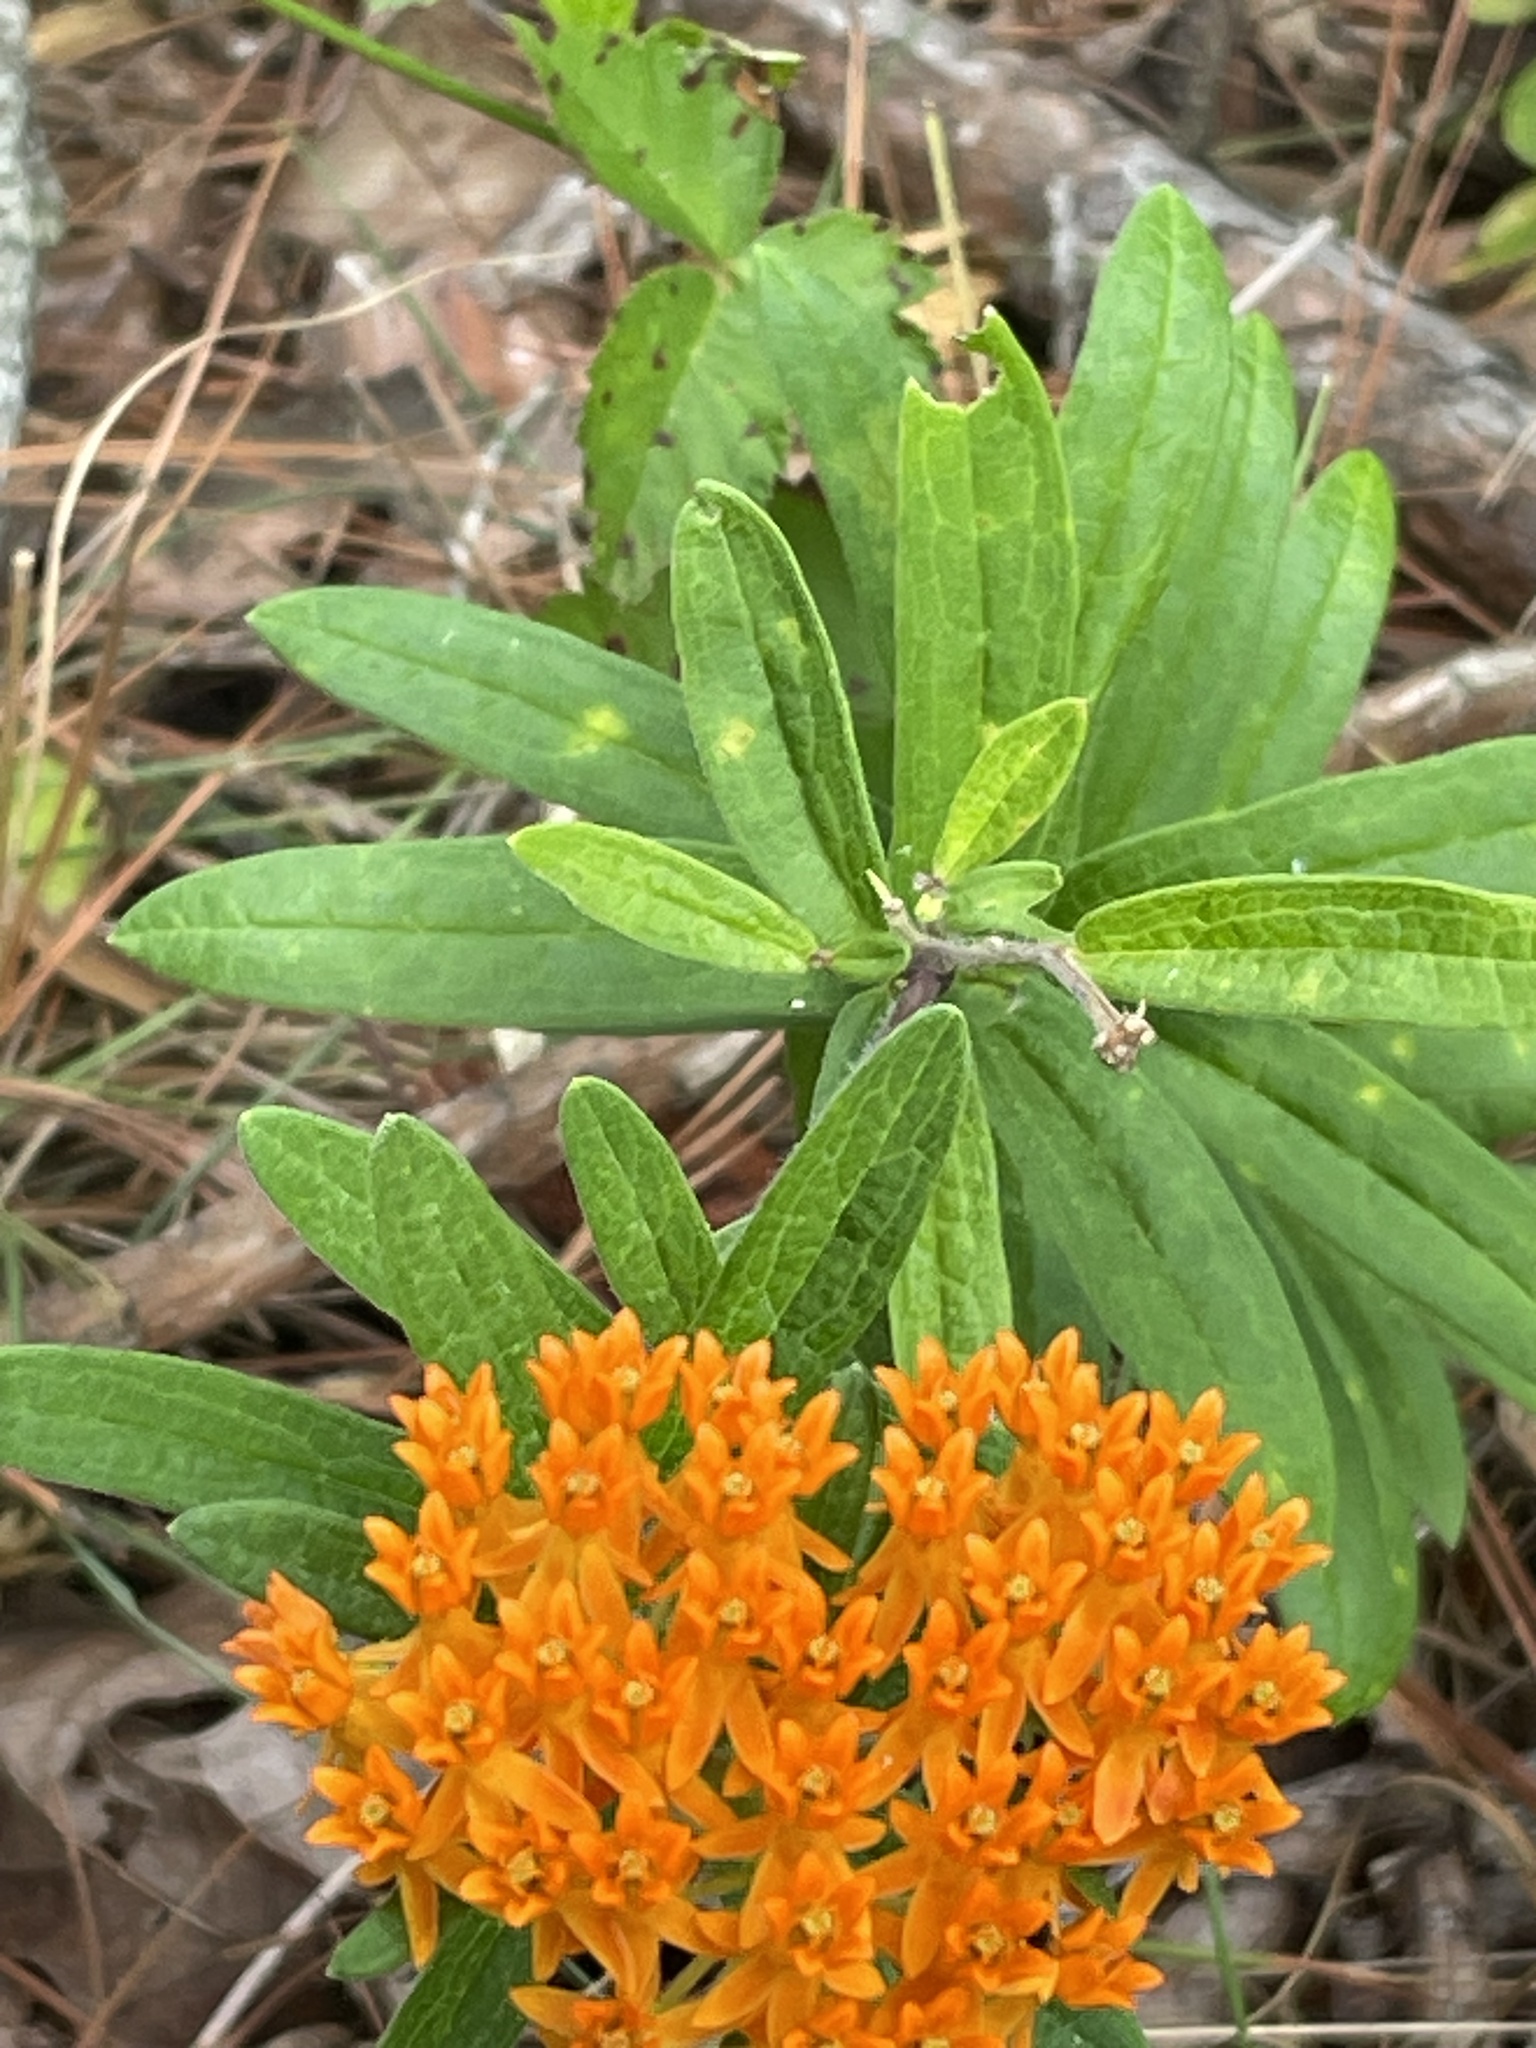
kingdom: Plantae
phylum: Tracheophyta
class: Magnoliopsida
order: Gentianales
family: Apocynaceae
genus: Asclepias
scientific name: Asclepias tuberosa
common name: Butterfly milkweed
